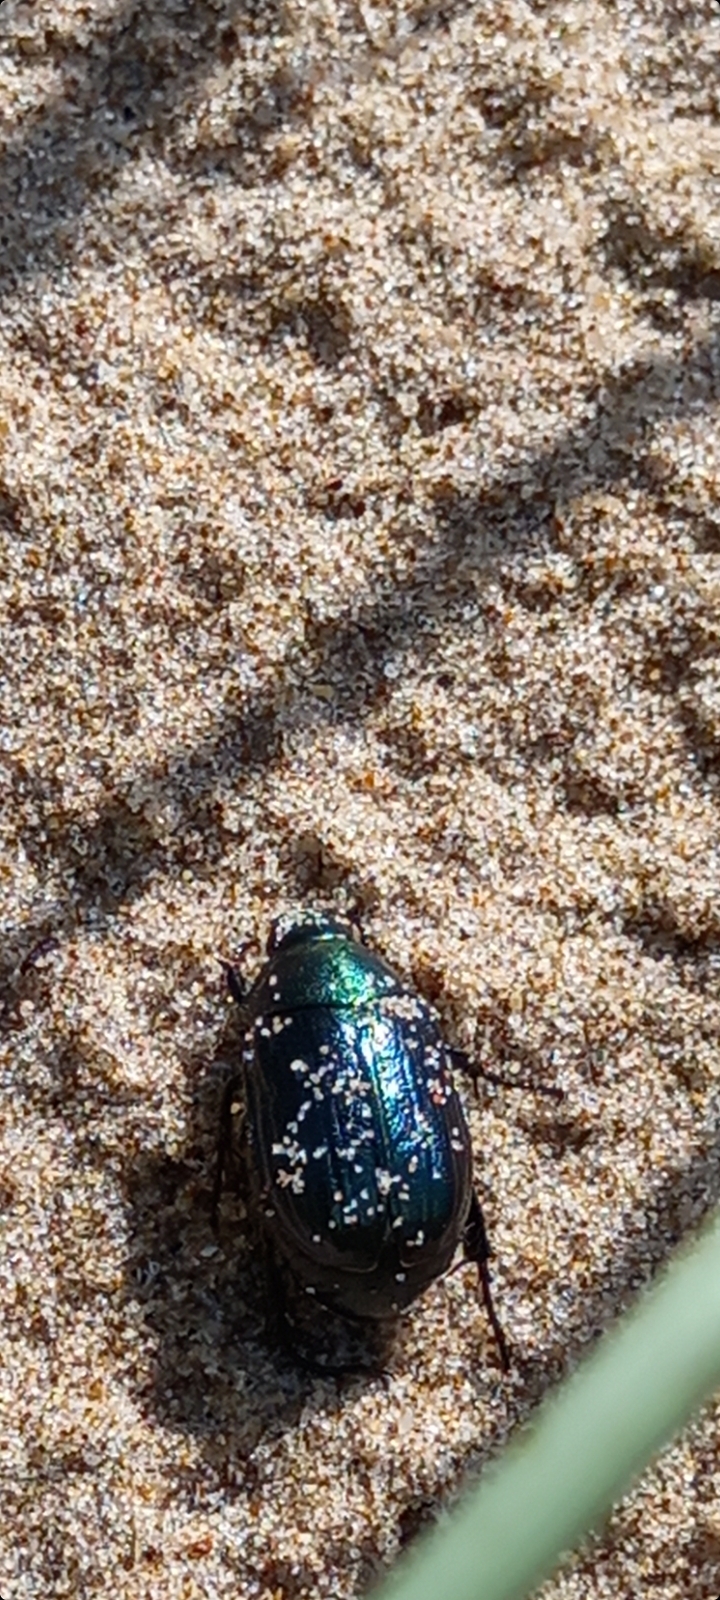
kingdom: Animalia
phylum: Arthropoda
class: Insecta
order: Coleoptera
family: Scarabaeidae
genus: Anomala
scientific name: Anomala dubia
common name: Dune chafer
